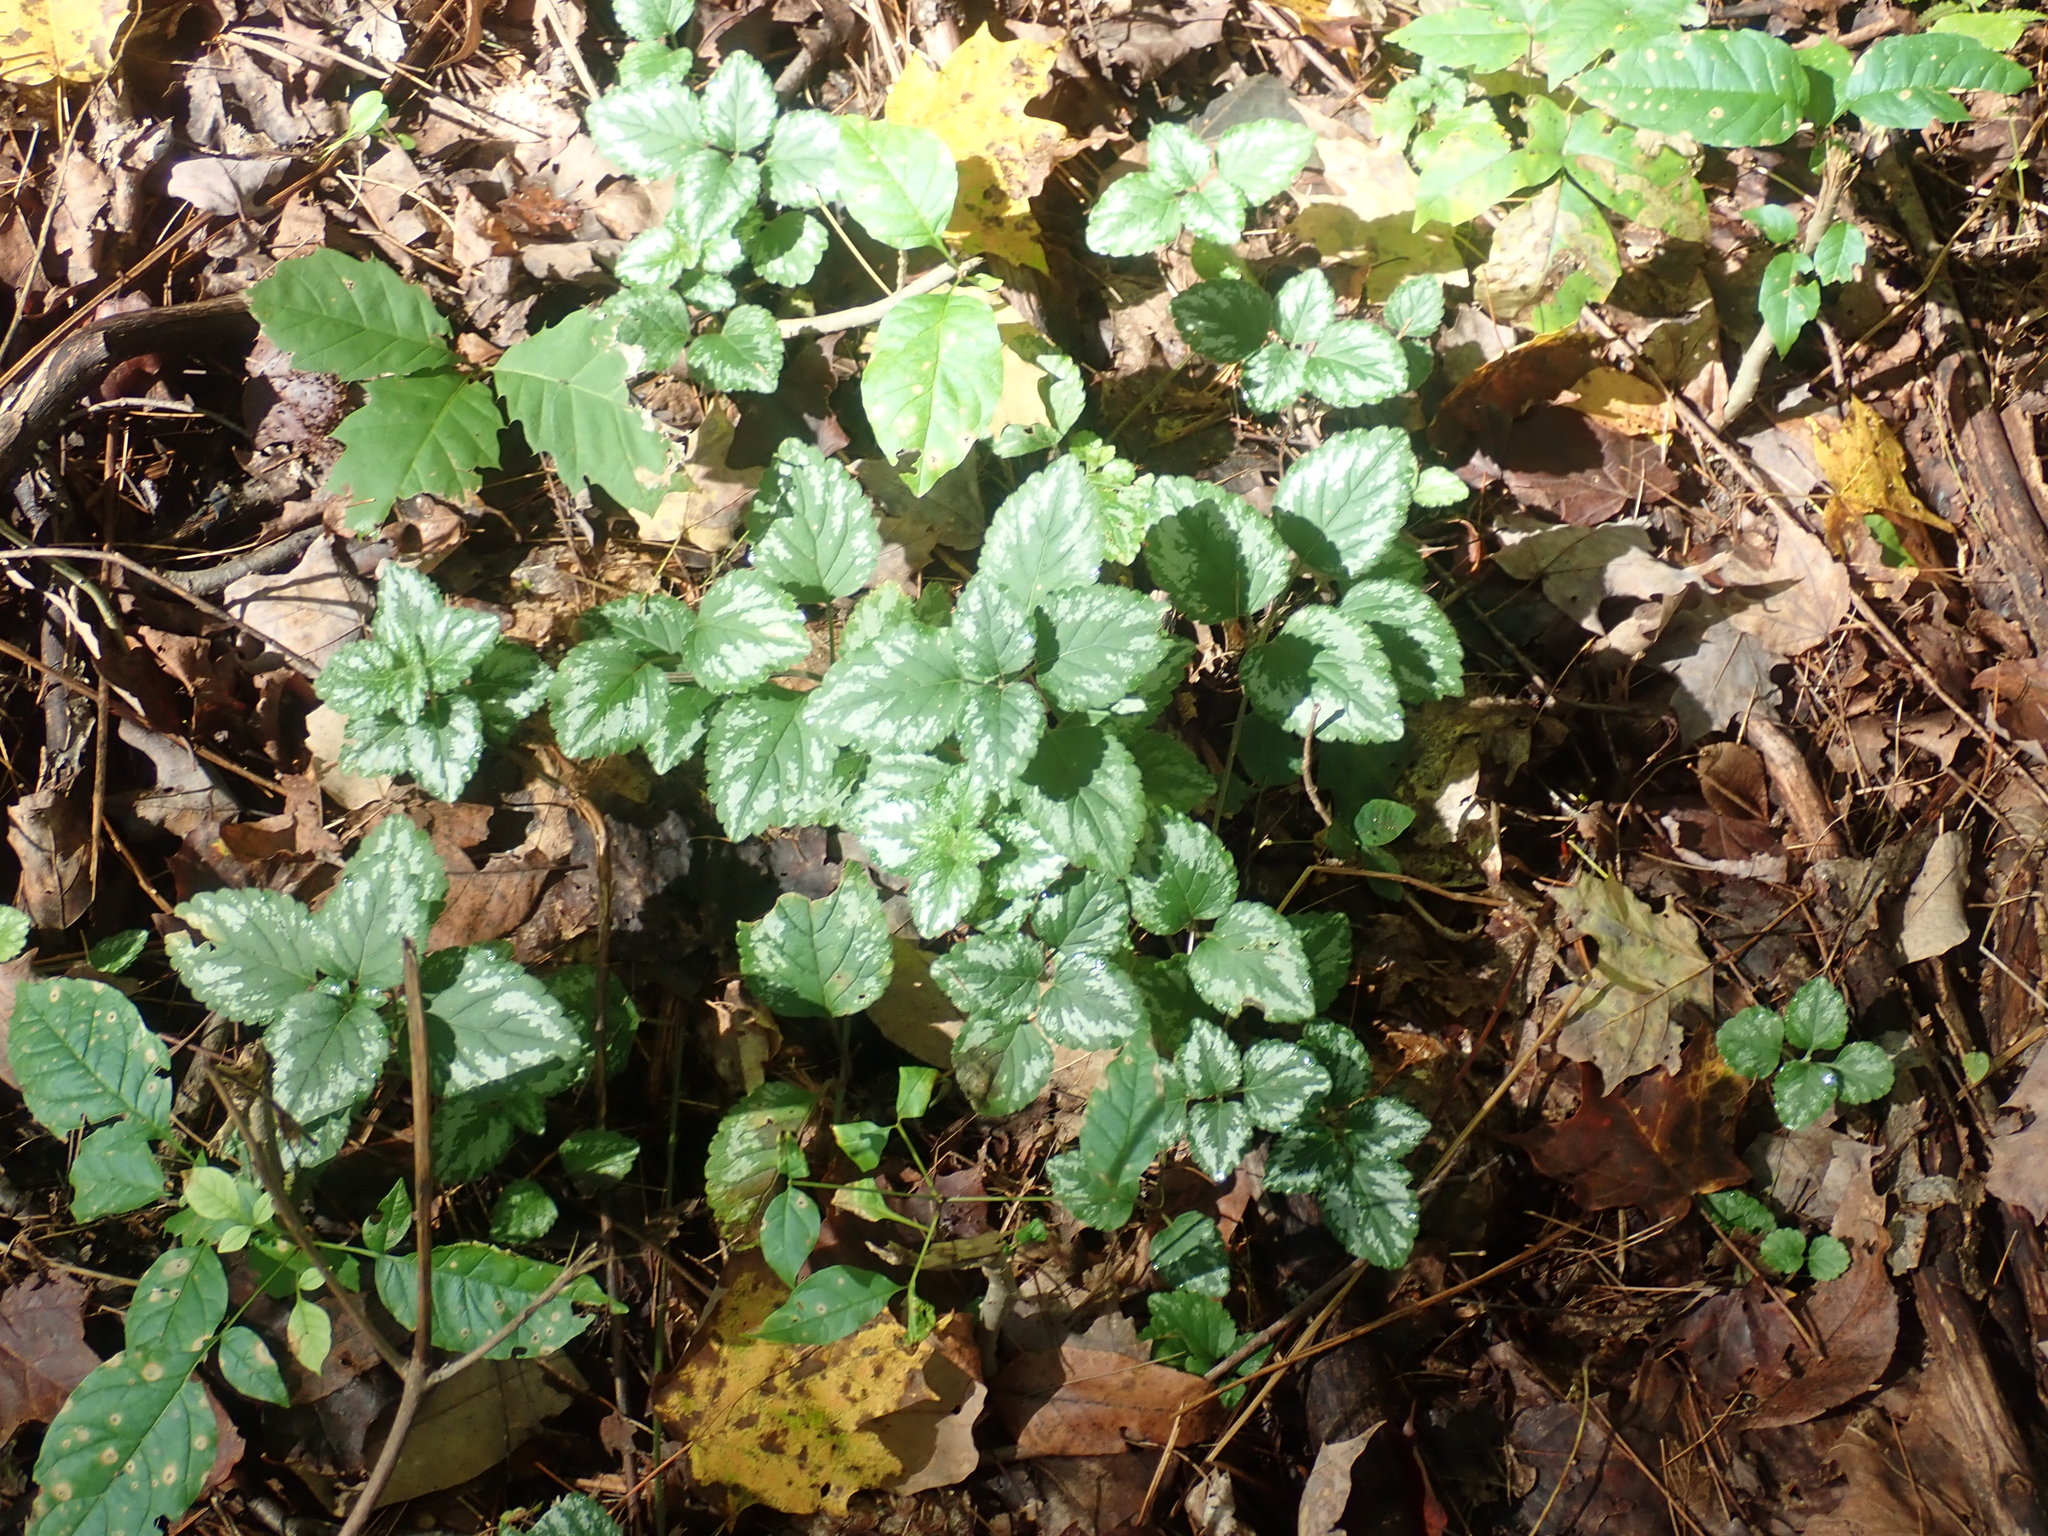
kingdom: Plantae
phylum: Tracheophyta
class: Magnoliopsida
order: Lamiales
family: Lamiaceae
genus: Lamium
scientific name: Lamium galeobdolon
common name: Yellow archangel
